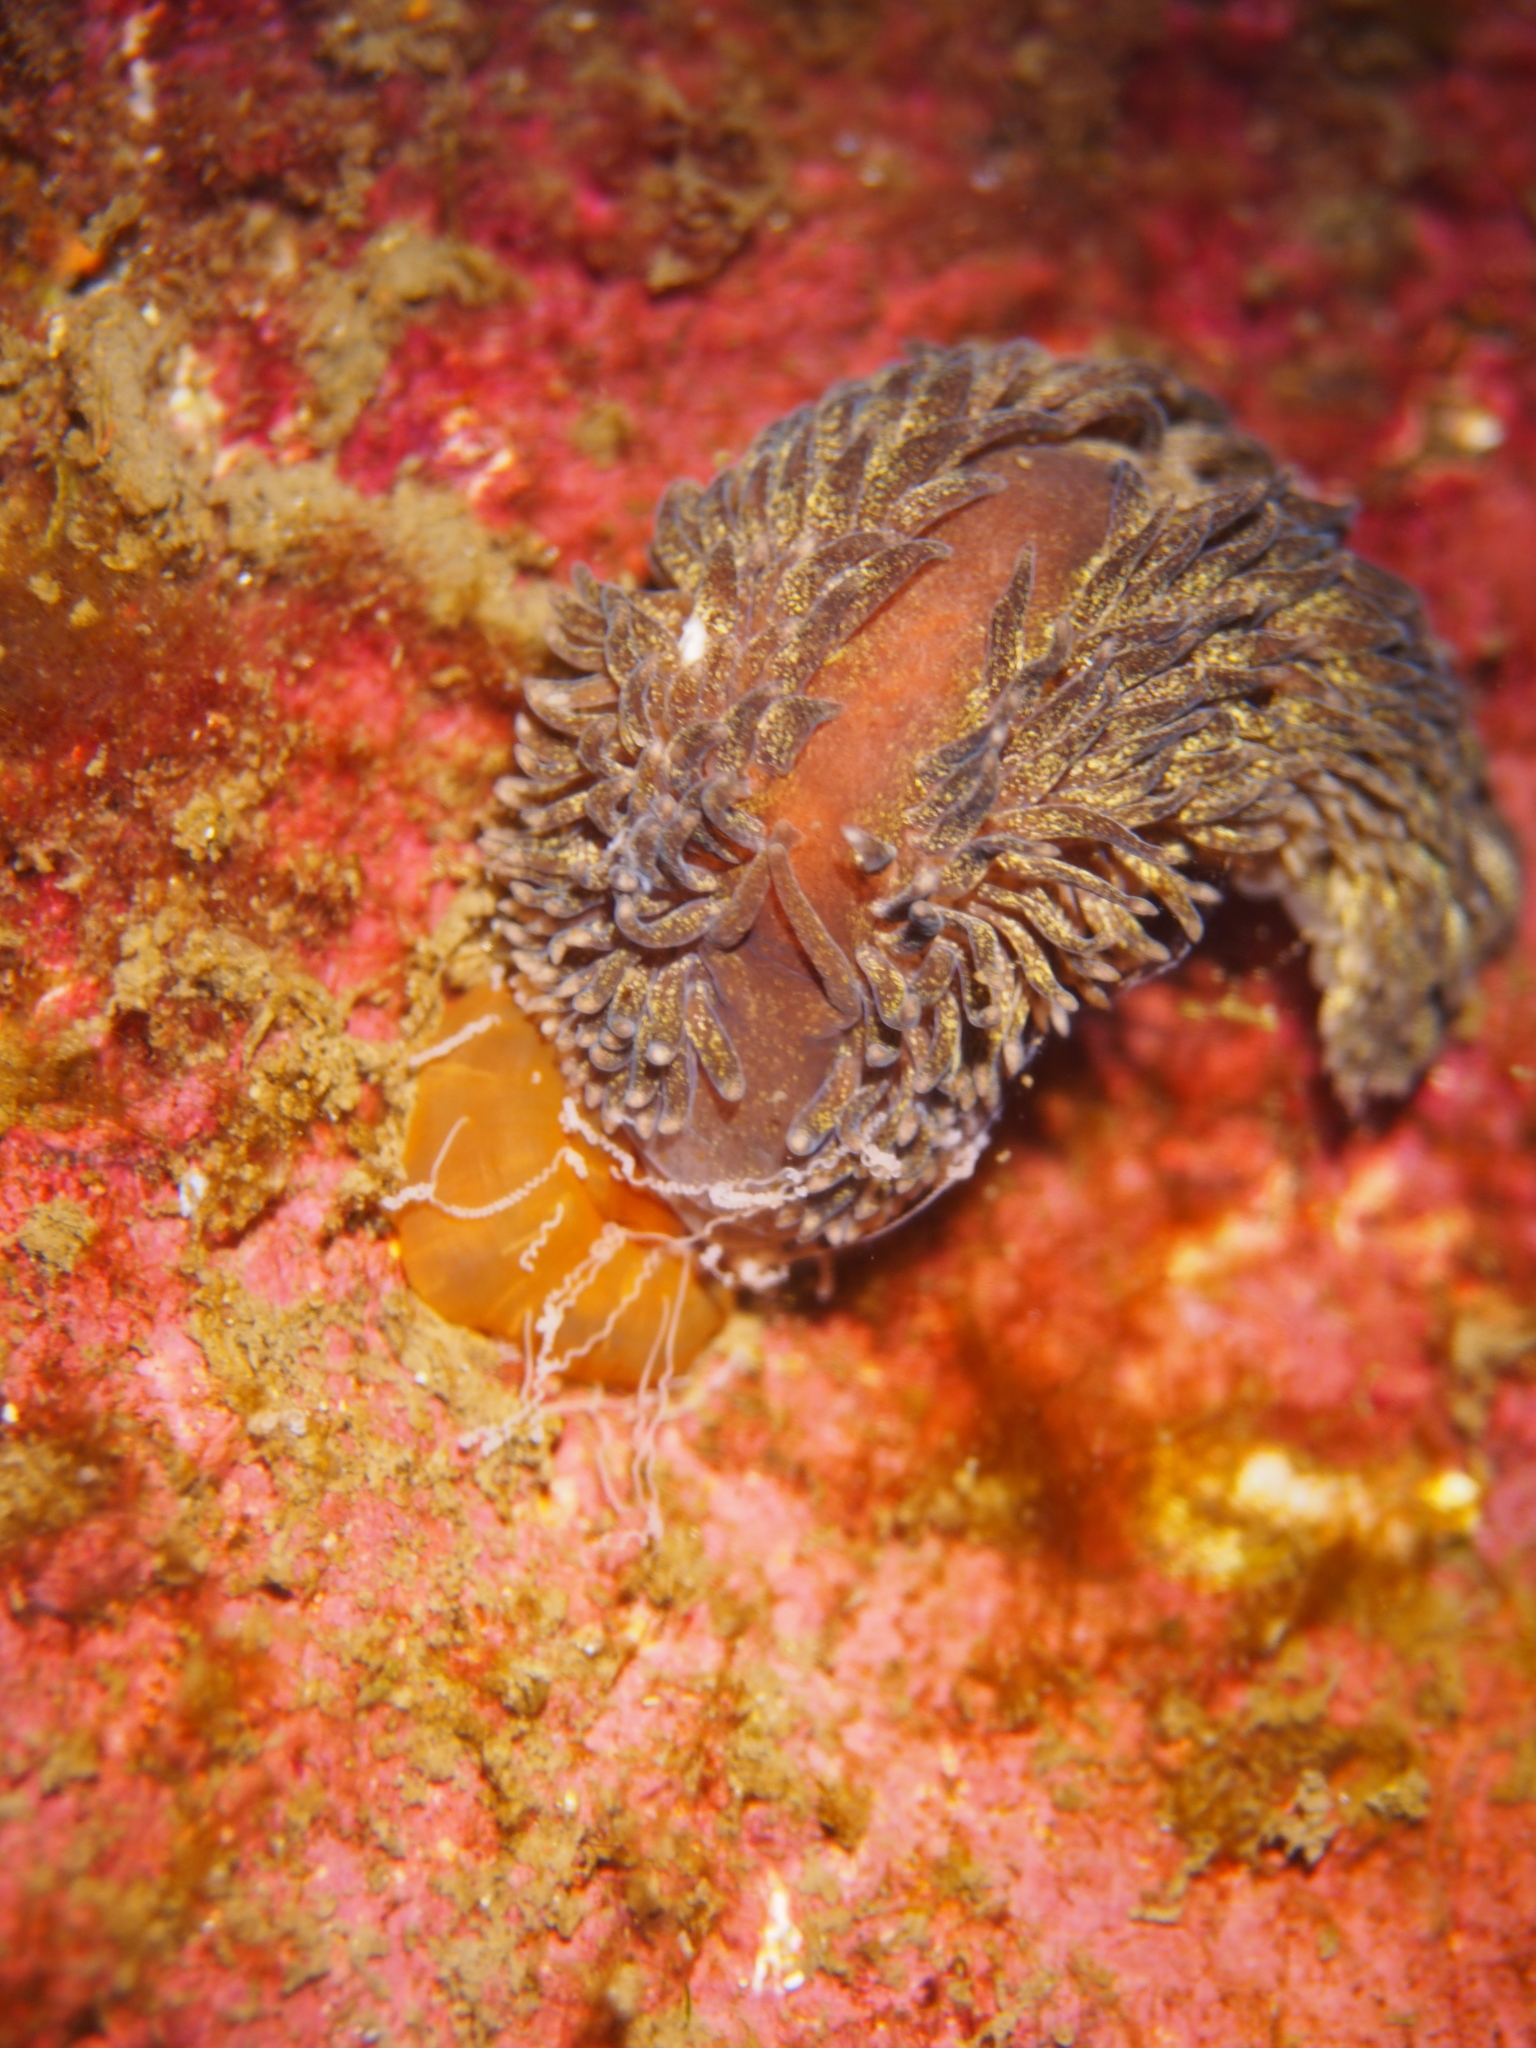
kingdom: Animalia
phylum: Mollusca
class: Gastropoda
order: Nudibranchia
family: Aeolidiidae
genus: Aeolidia
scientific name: Aeolidia papillosa
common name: Common grey sea slug
